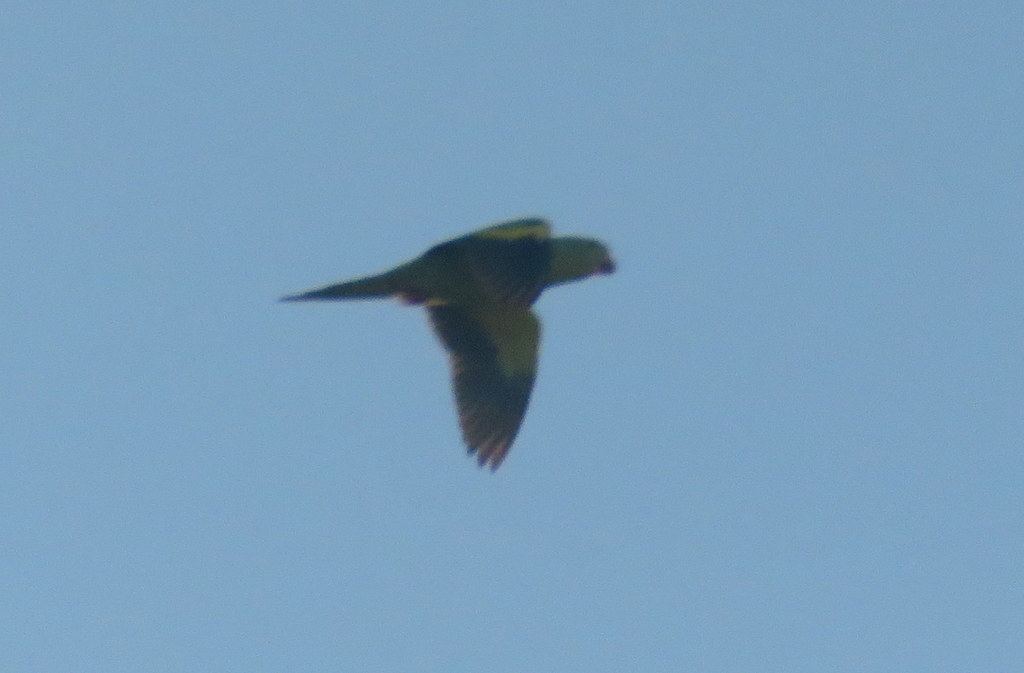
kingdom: Animalia
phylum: Chordata
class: Aves
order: Psittaciformes
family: Psittacidae
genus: Brotogeris
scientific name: Brotogeris chiriri
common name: Yellow-chevroned parakeet
